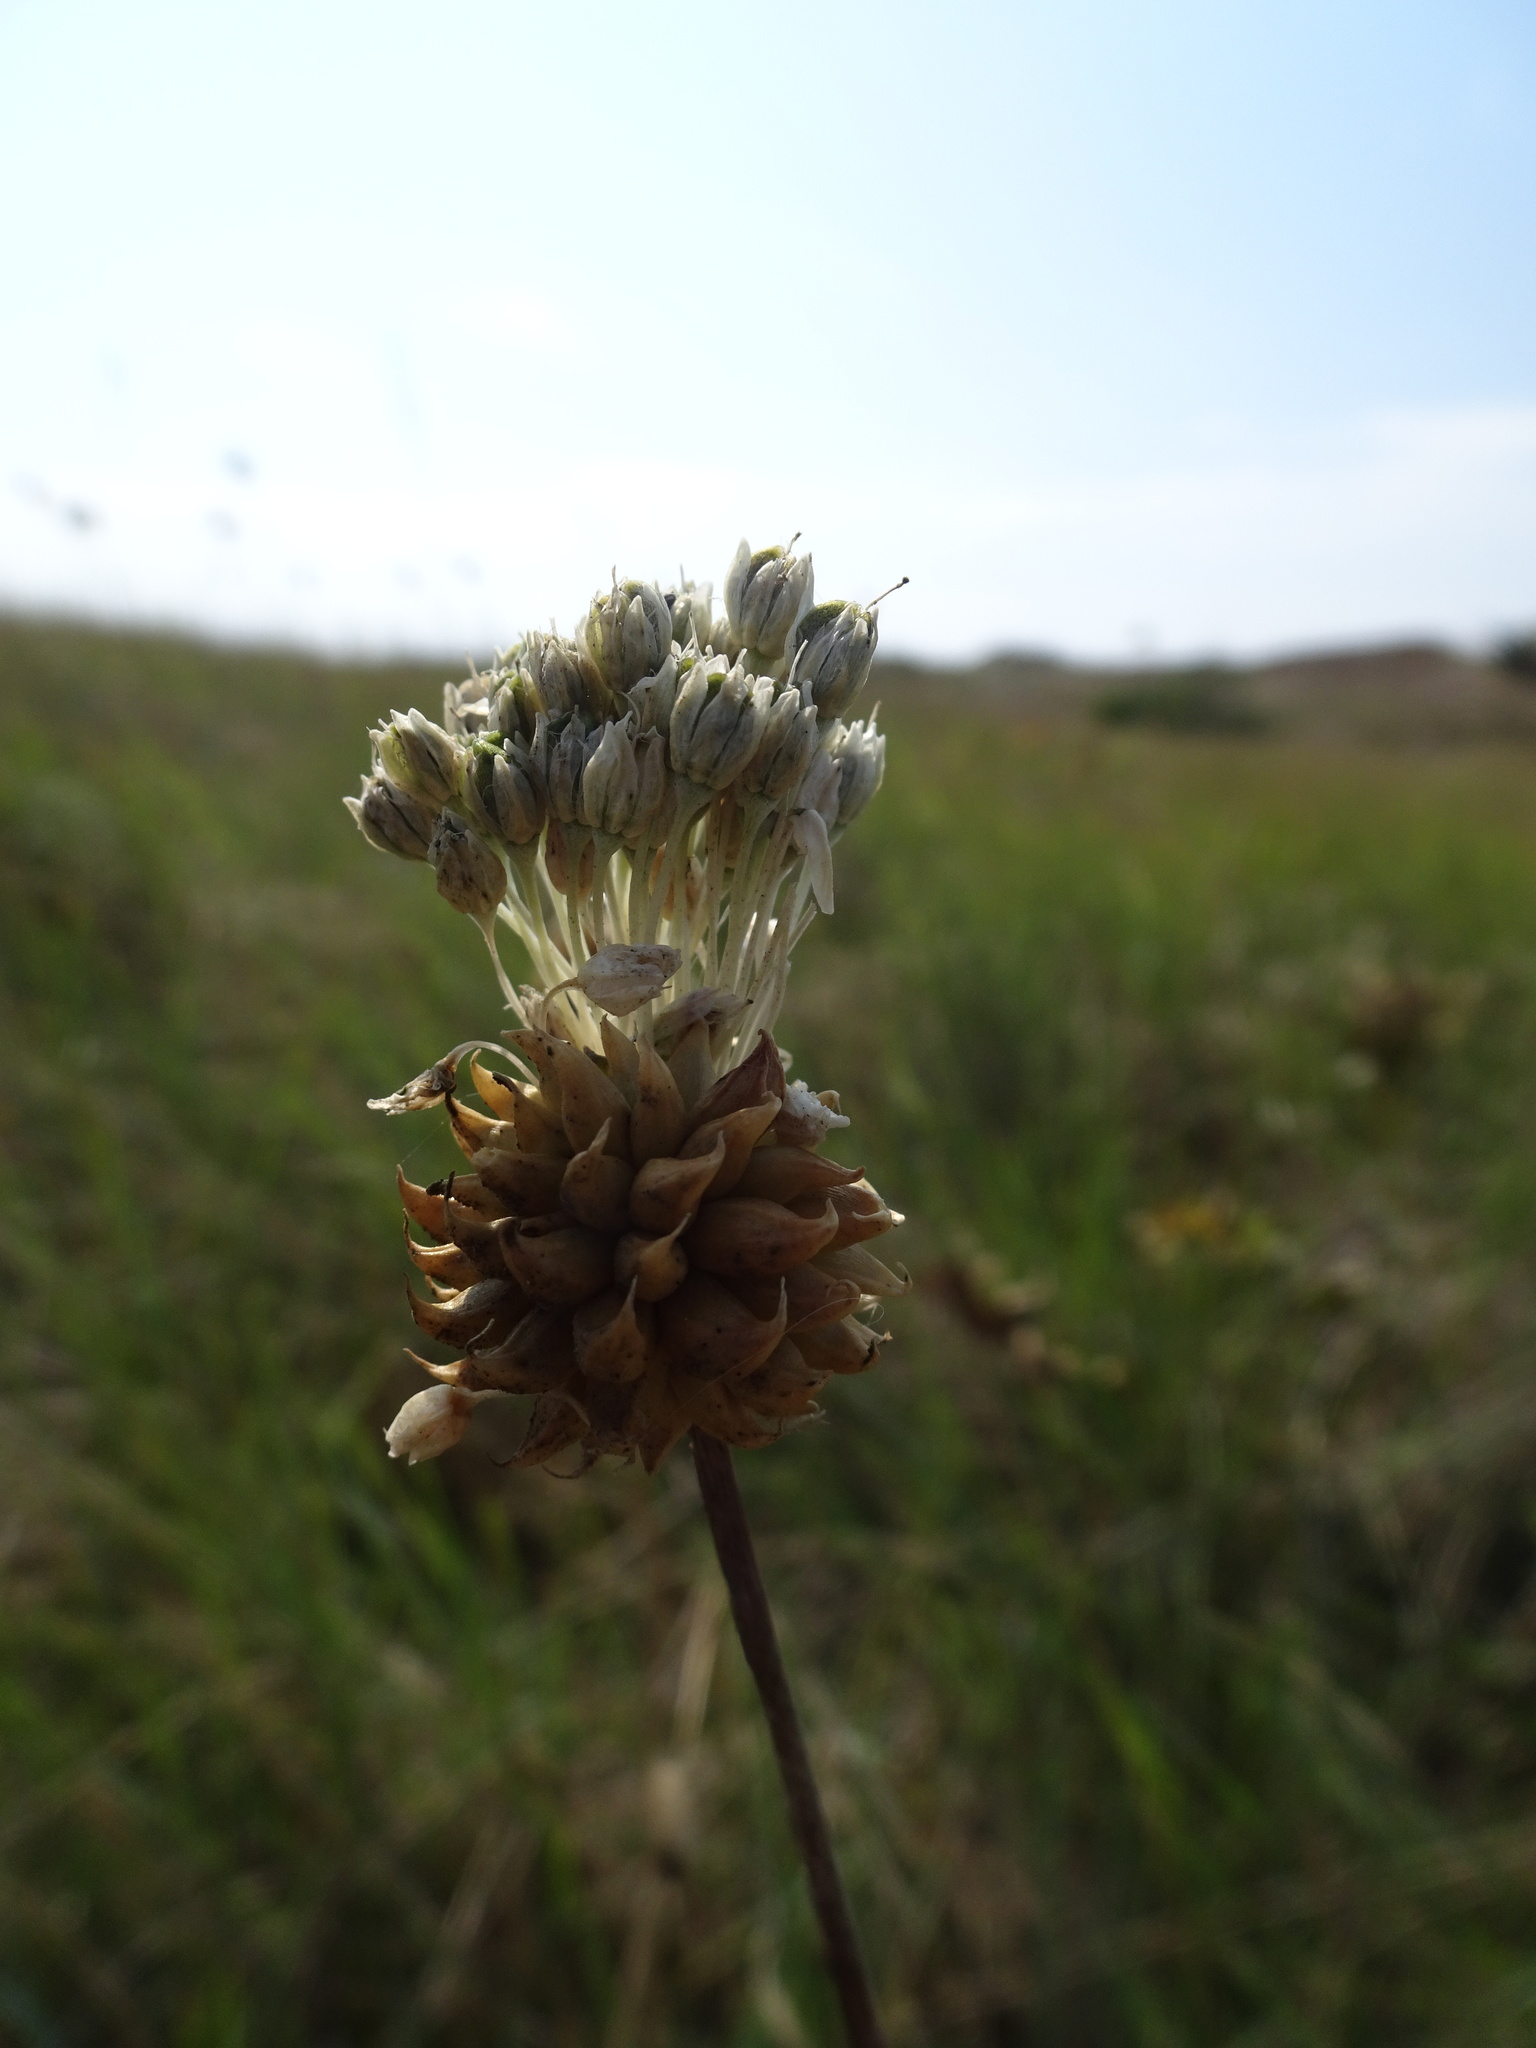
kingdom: Plantae
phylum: Tracheophyta
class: Liliopsida
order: Asparagales
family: Amaryllidaceae
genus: Allium
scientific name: Allium vineale
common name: Crow garlic
